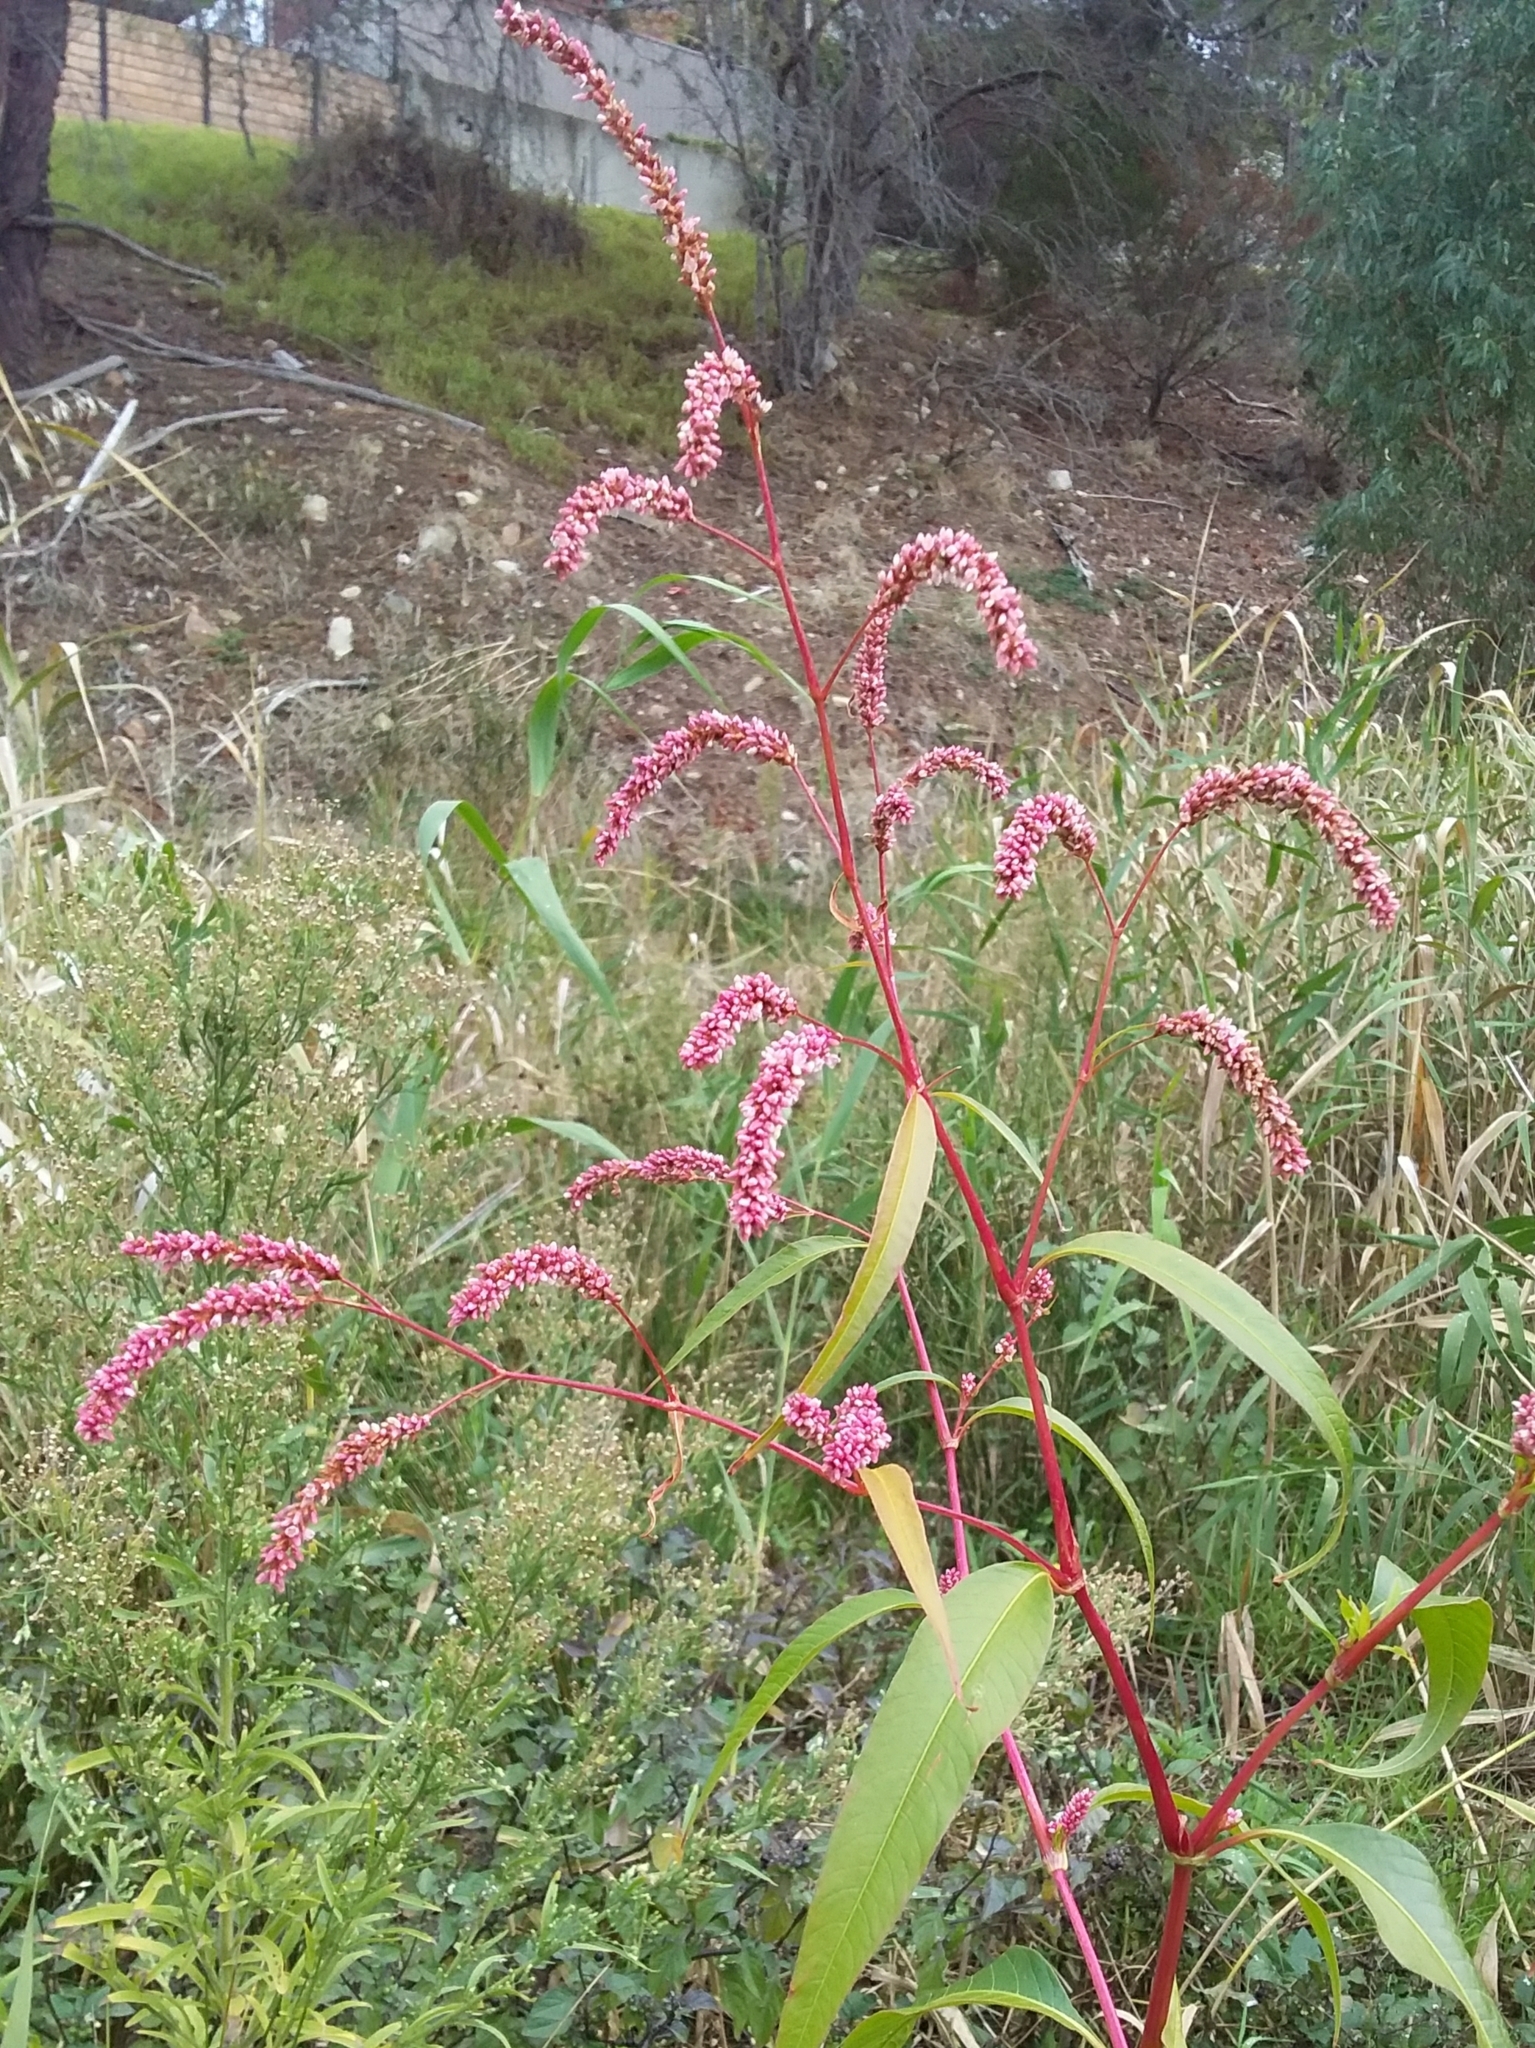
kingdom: Plantae
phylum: Tracheophyta
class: Magnoliopsida
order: Caryophyllales
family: Polygonaceae
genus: Persicaria
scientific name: Persicaria lapathifolia
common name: Curlytop knotweed
